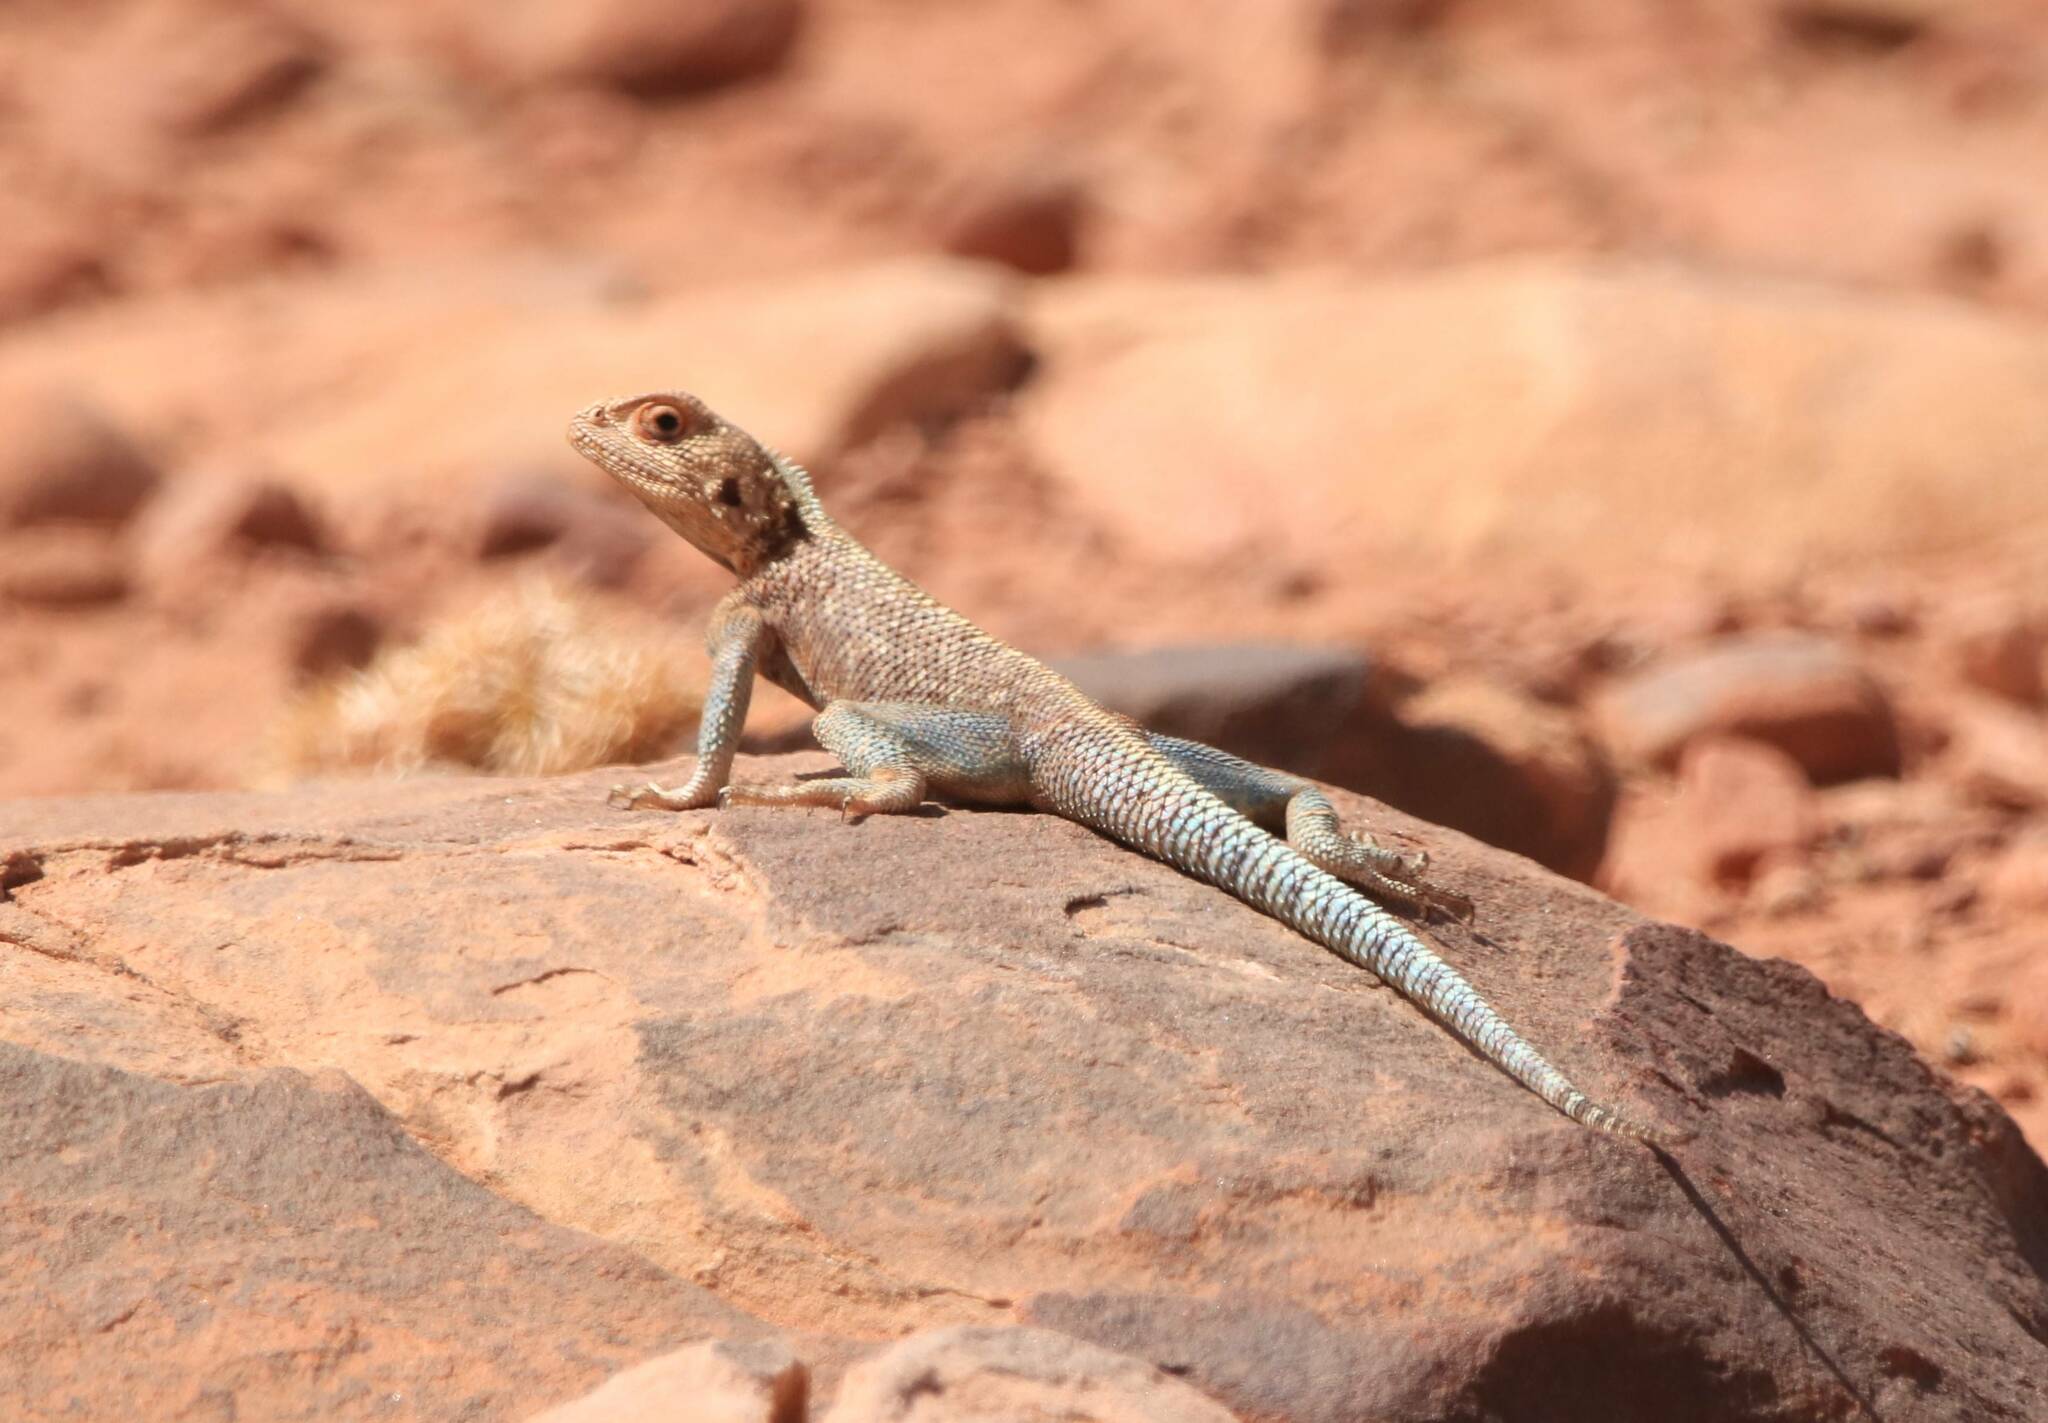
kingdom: Animalia
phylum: Chordata
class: Squamata
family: Agamidae
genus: Agama
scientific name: Agama impalearis
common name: Bibron's agama
